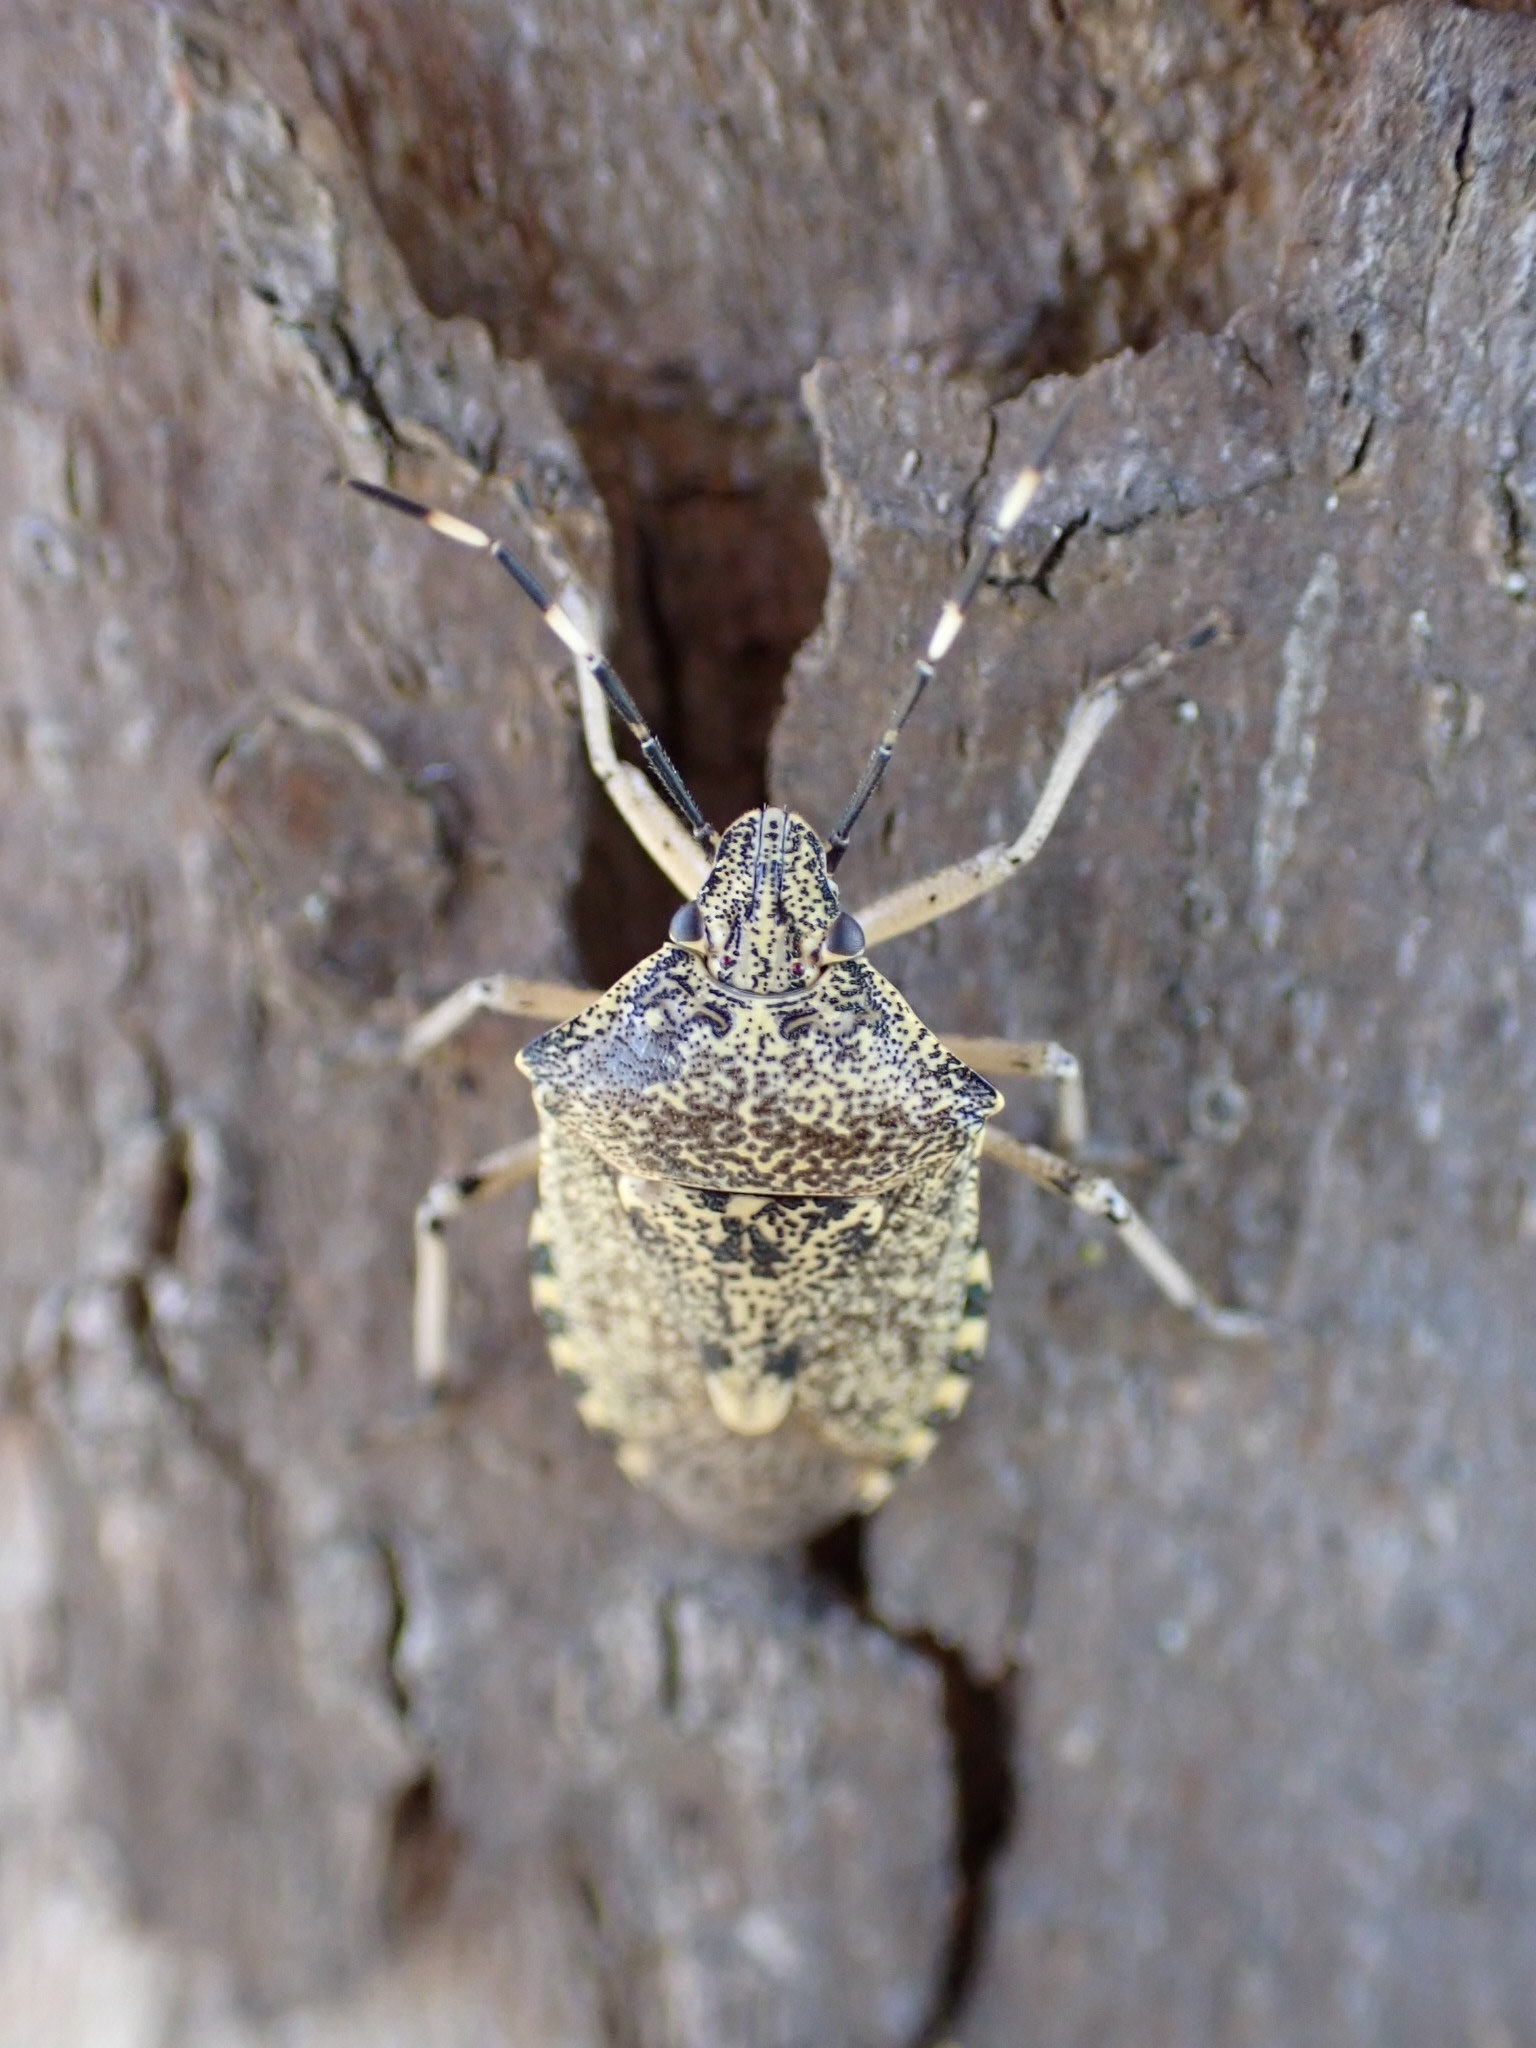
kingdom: Animalia
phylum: Arthropoda
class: Insecta
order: Hemiptera
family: Pentatomidae
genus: Rhaphigaster
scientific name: Rhaphigaster nebulosa
